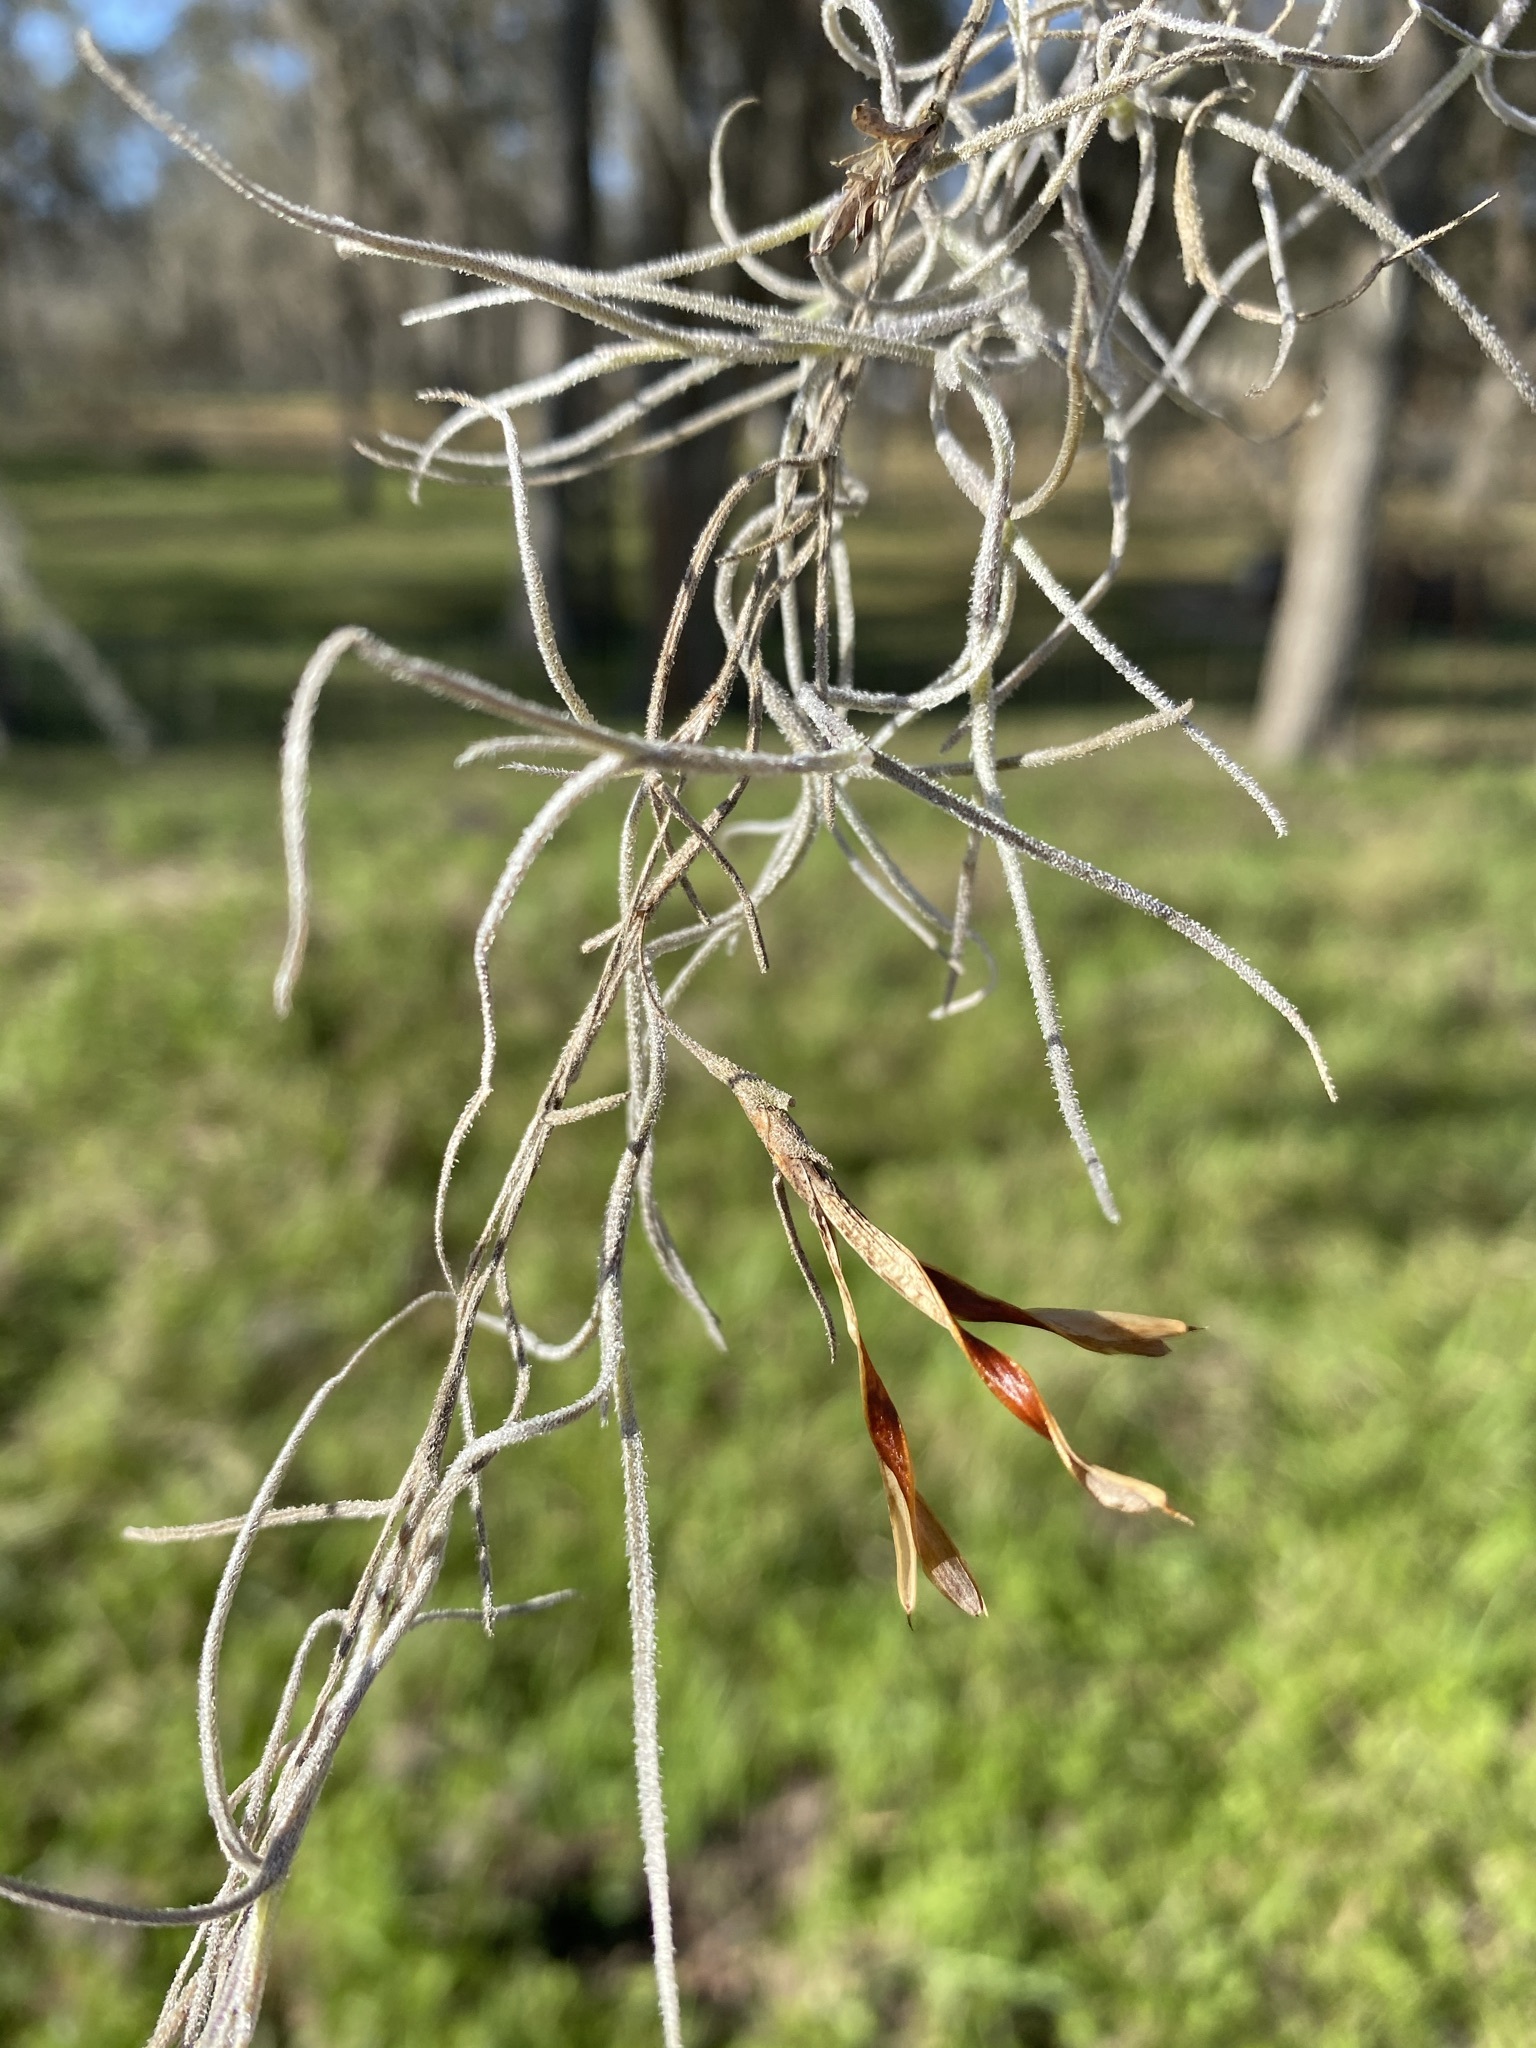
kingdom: Plantae
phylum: Tracheophyta
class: Liliopsida
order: Poales
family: Bromeliaceae
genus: Tillandsia
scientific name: Tillandsia usneoides
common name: Spanish moss
